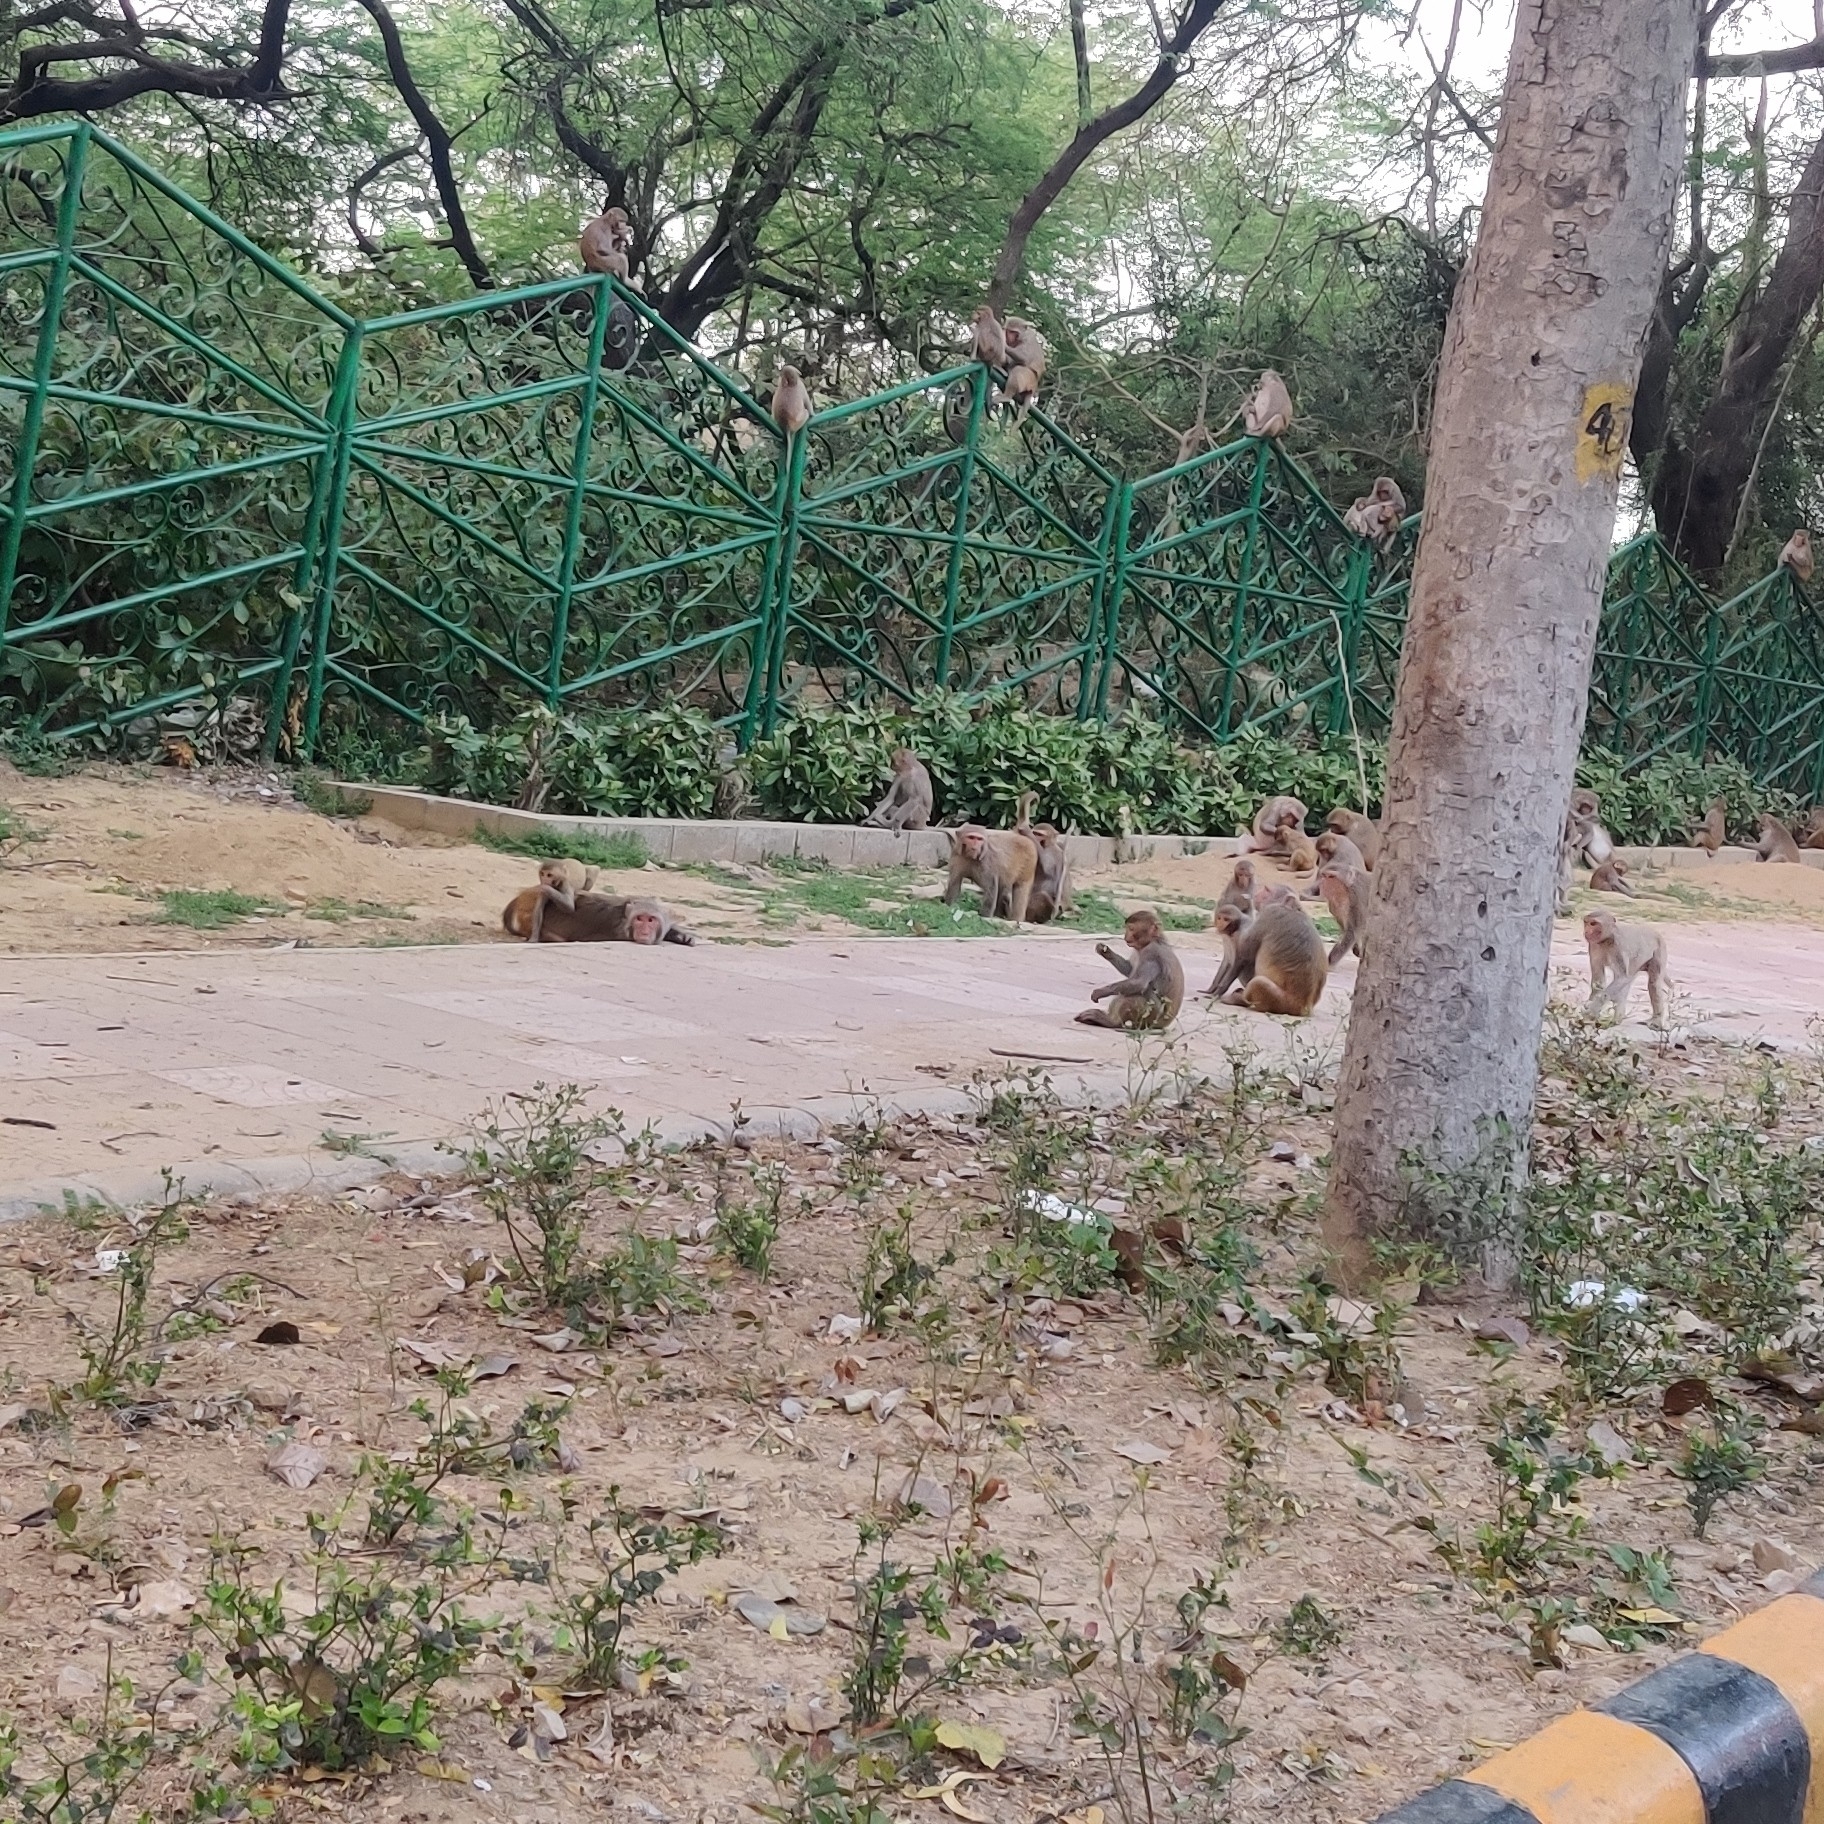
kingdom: Animalia
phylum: Chordata
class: Mammalia
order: Primates
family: Cercopithecidae
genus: Macaca
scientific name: Macaca mulatta
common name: Rhesus monkey
